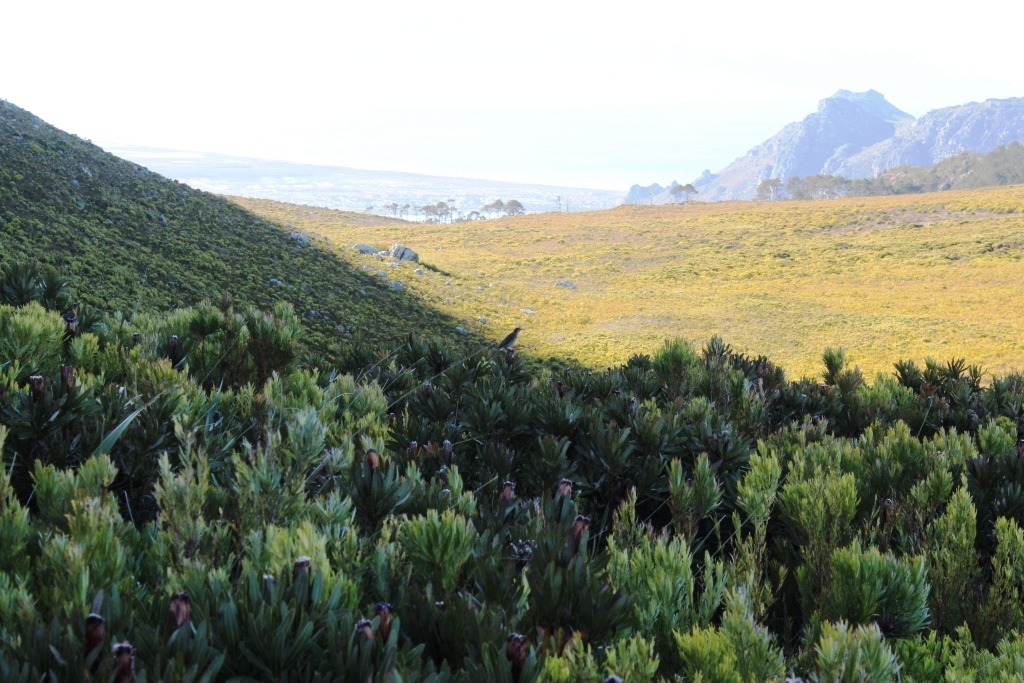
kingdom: Plantae
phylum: Tracheophyta
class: Magnoliopsida
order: Proteales
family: Proteaceae
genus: Protea
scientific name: Protea lepidocarpodendron
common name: Black-bearded protea
